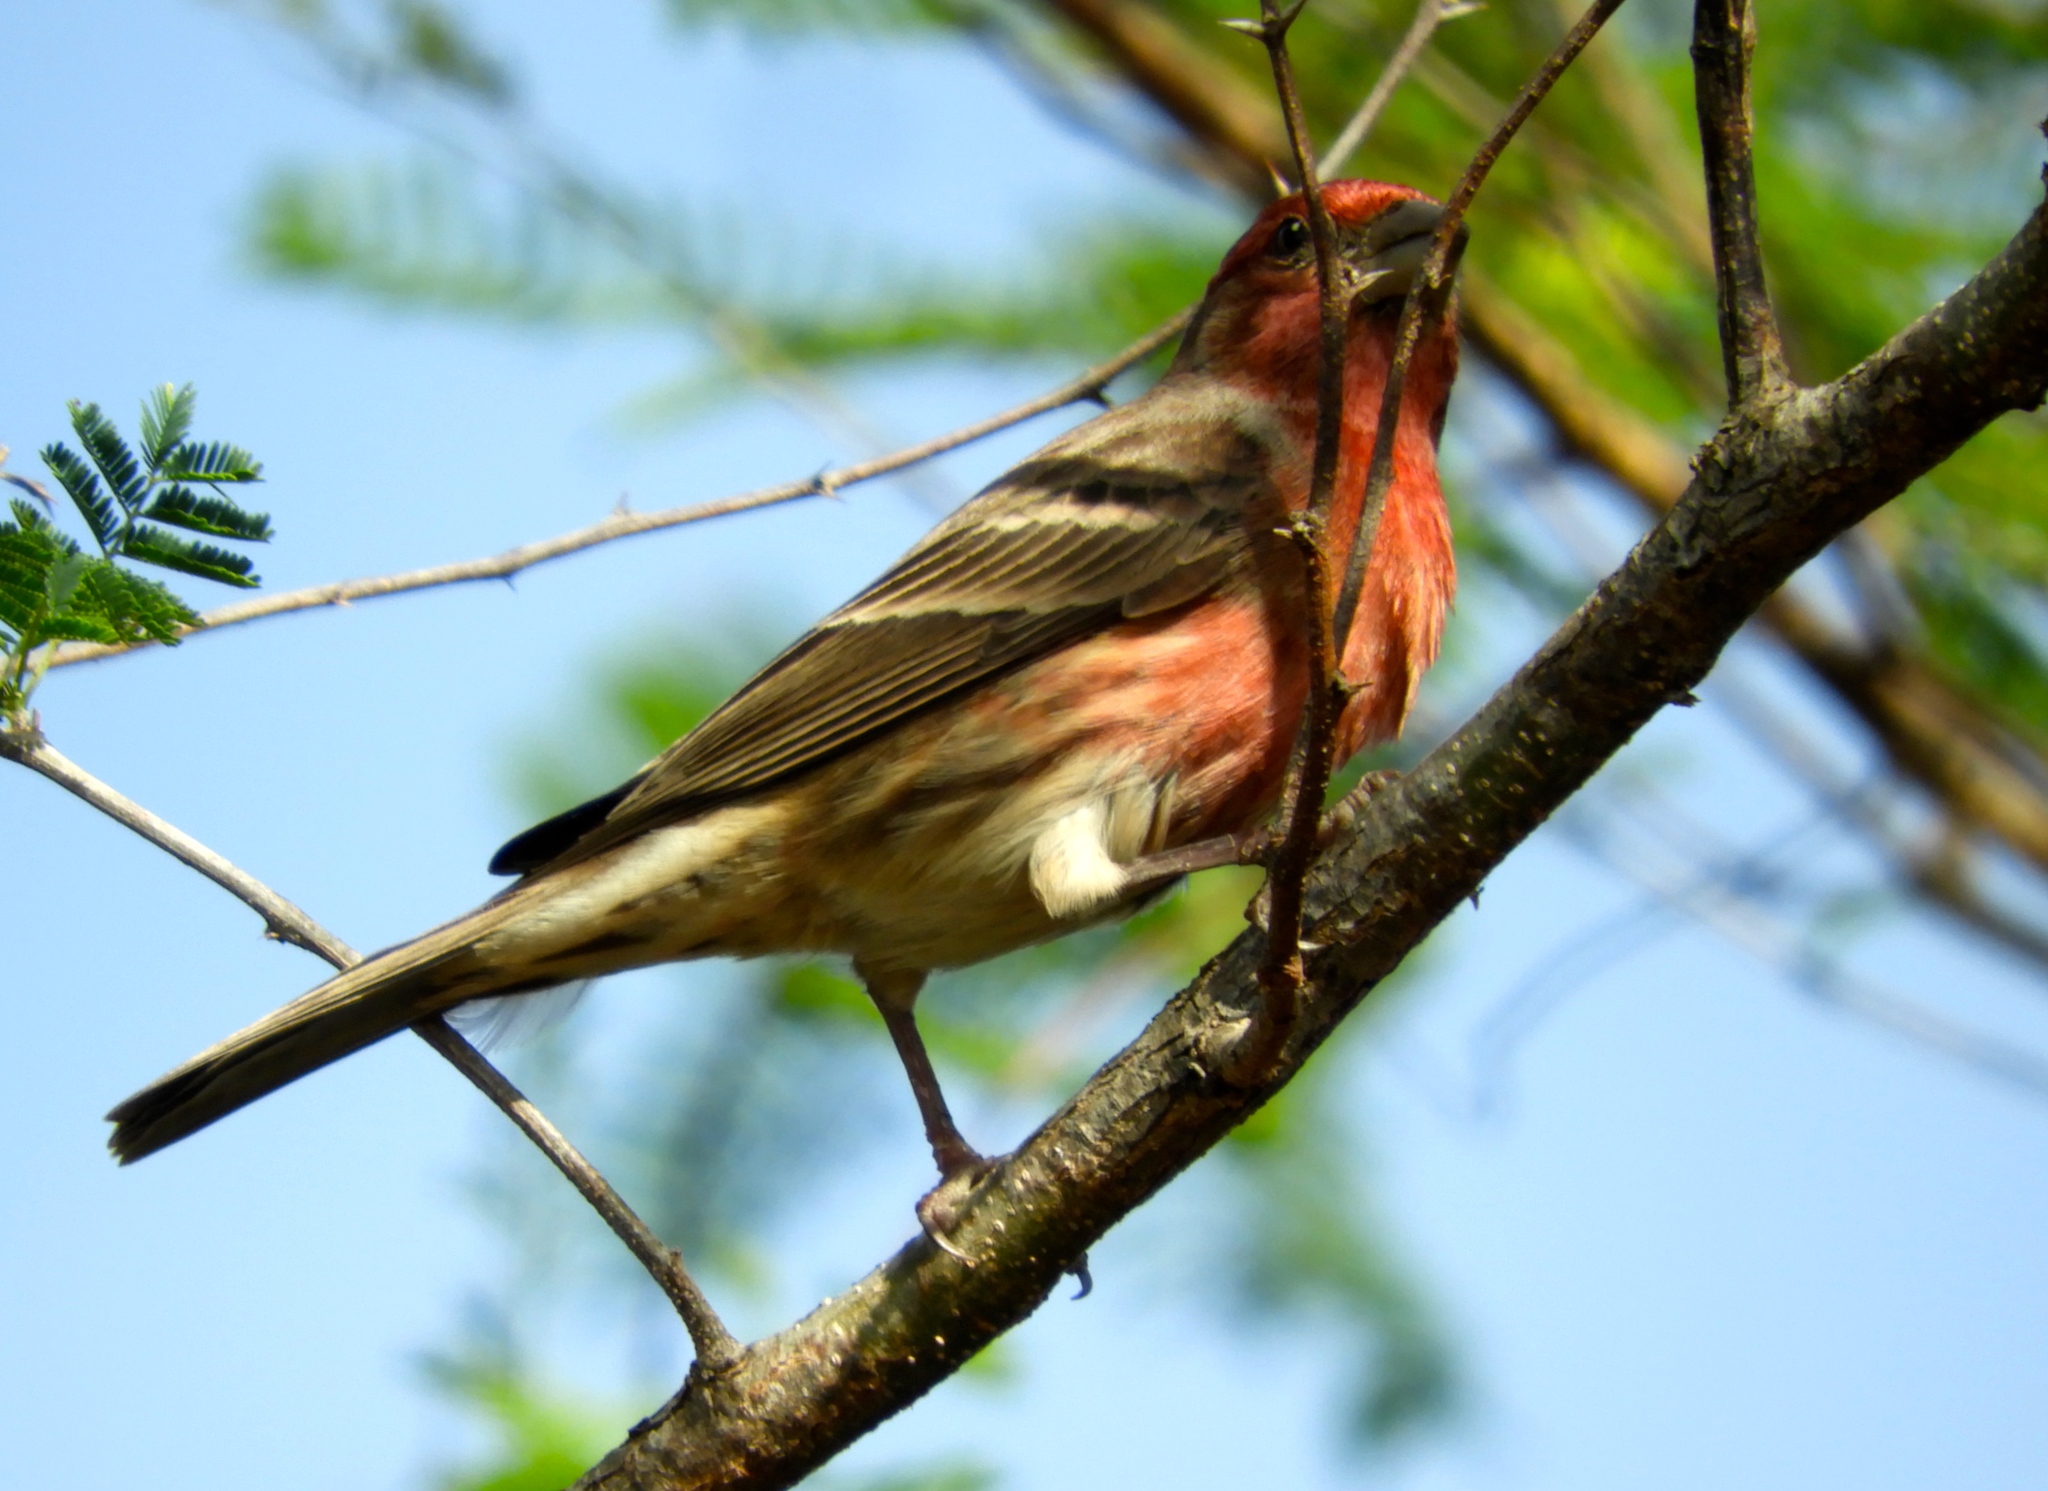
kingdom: Animalia
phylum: Chordata
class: Aves
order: Passeriformes
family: Fringillidae
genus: Haemorhous
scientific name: Haemorhous mexicanus
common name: House finch
